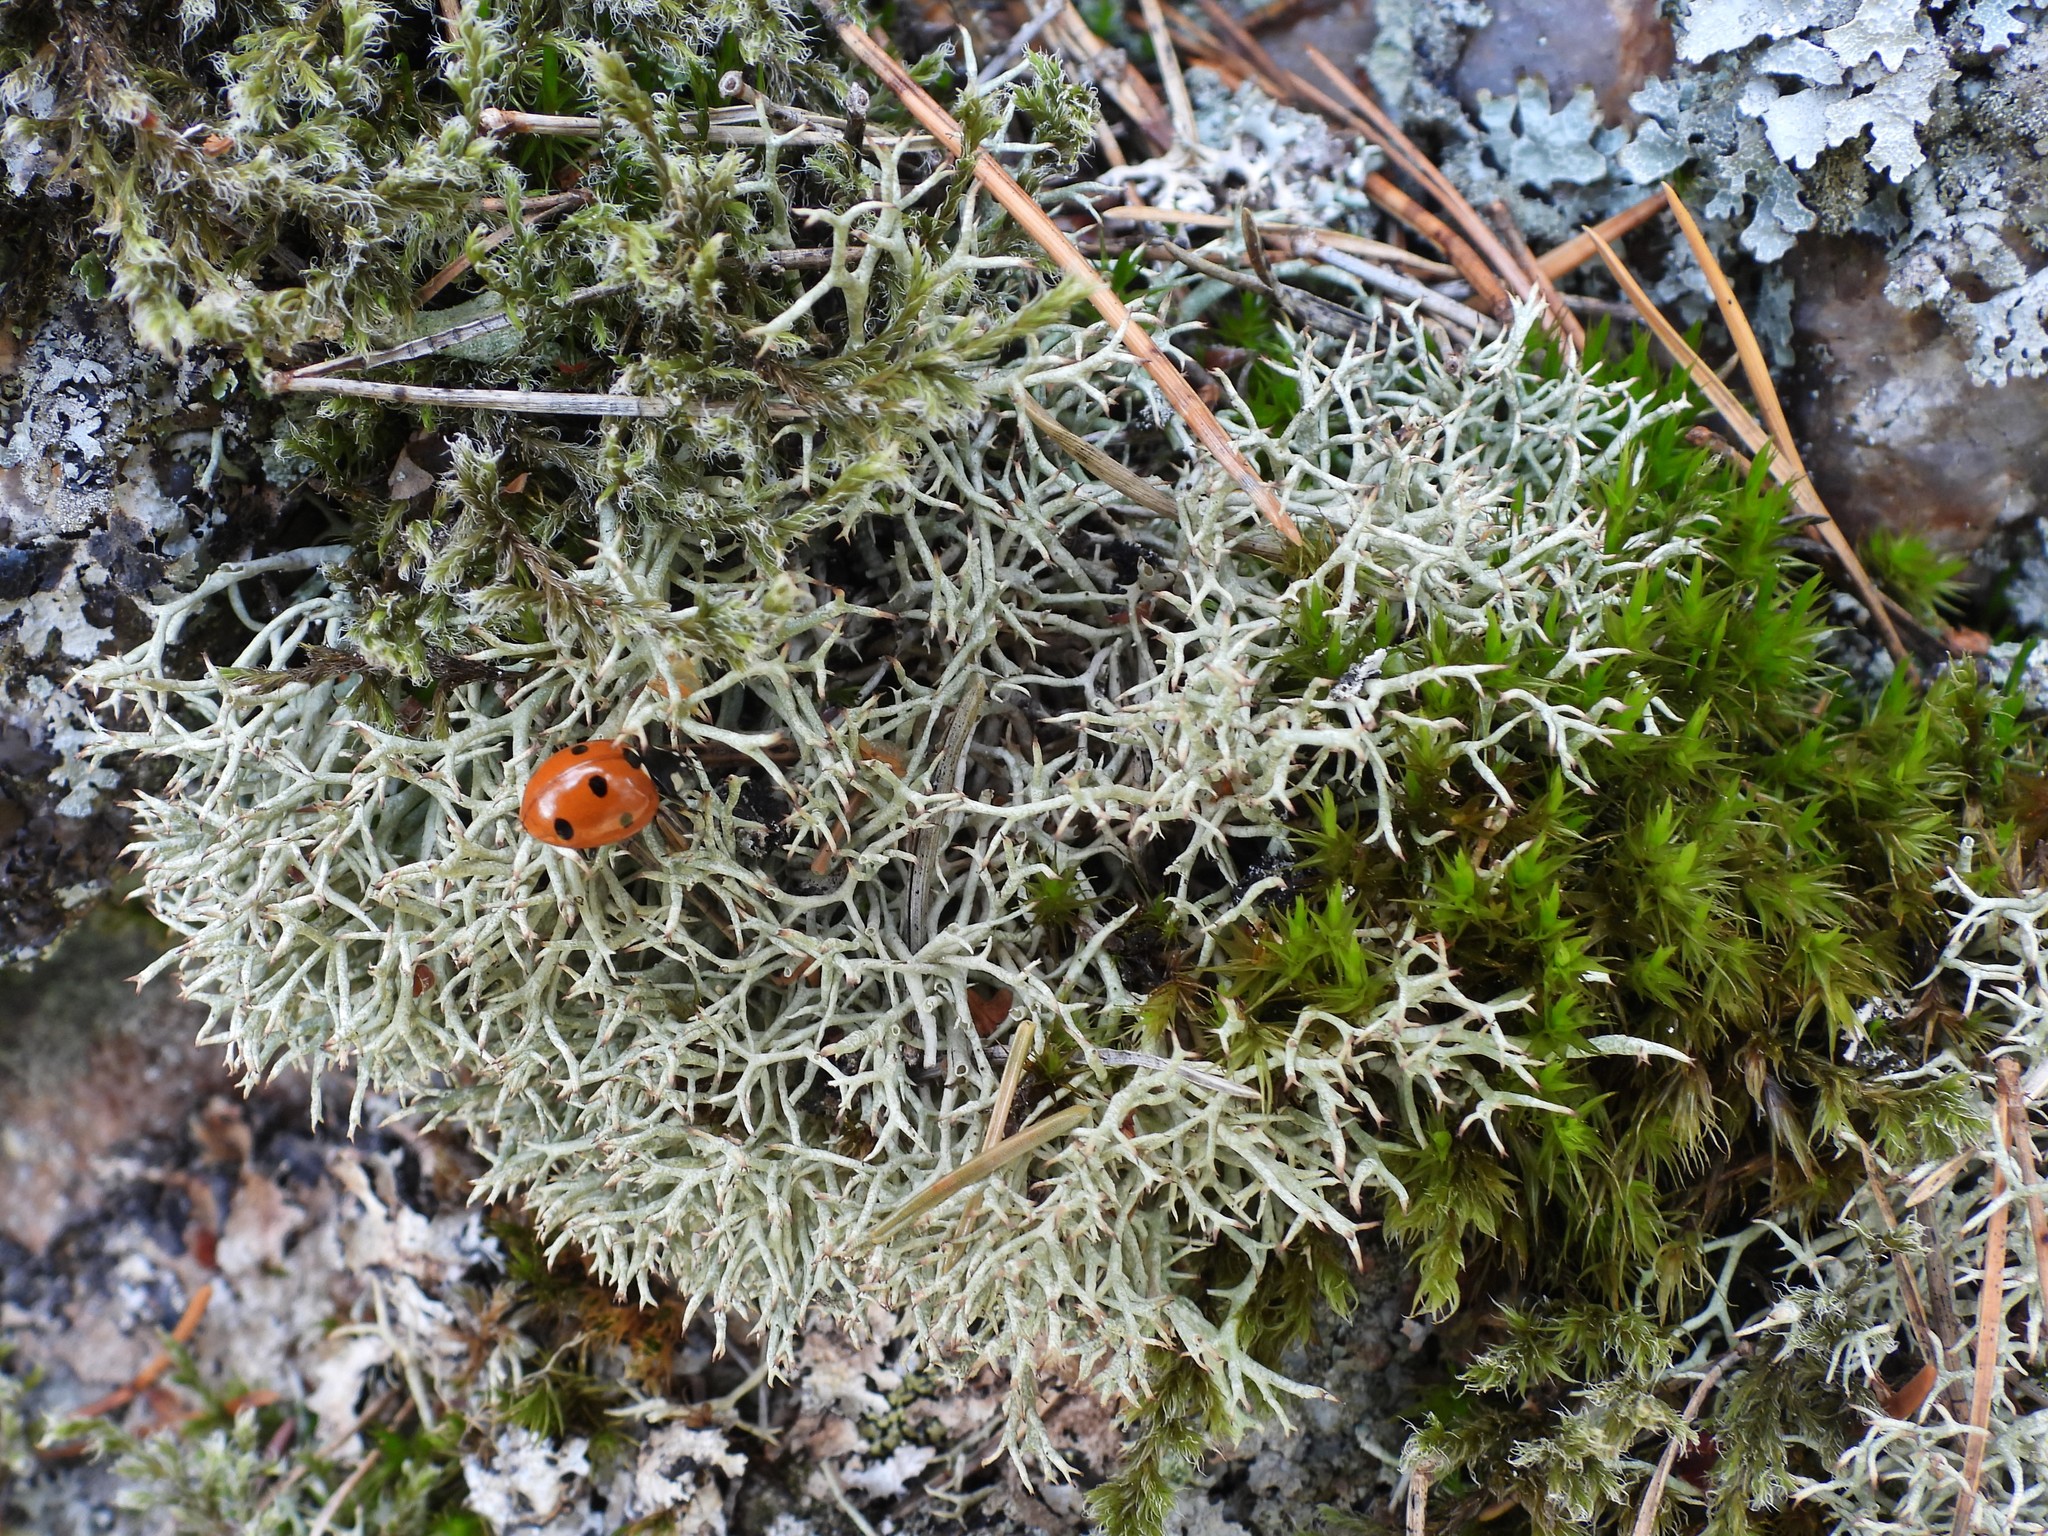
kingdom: Fungi
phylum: Ascomycota
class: Lecanoromycetes
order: Lecanorales
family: Cladoniaceae
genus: Cladonia
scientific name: Cladonia uncialis
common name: Thorn lichen
